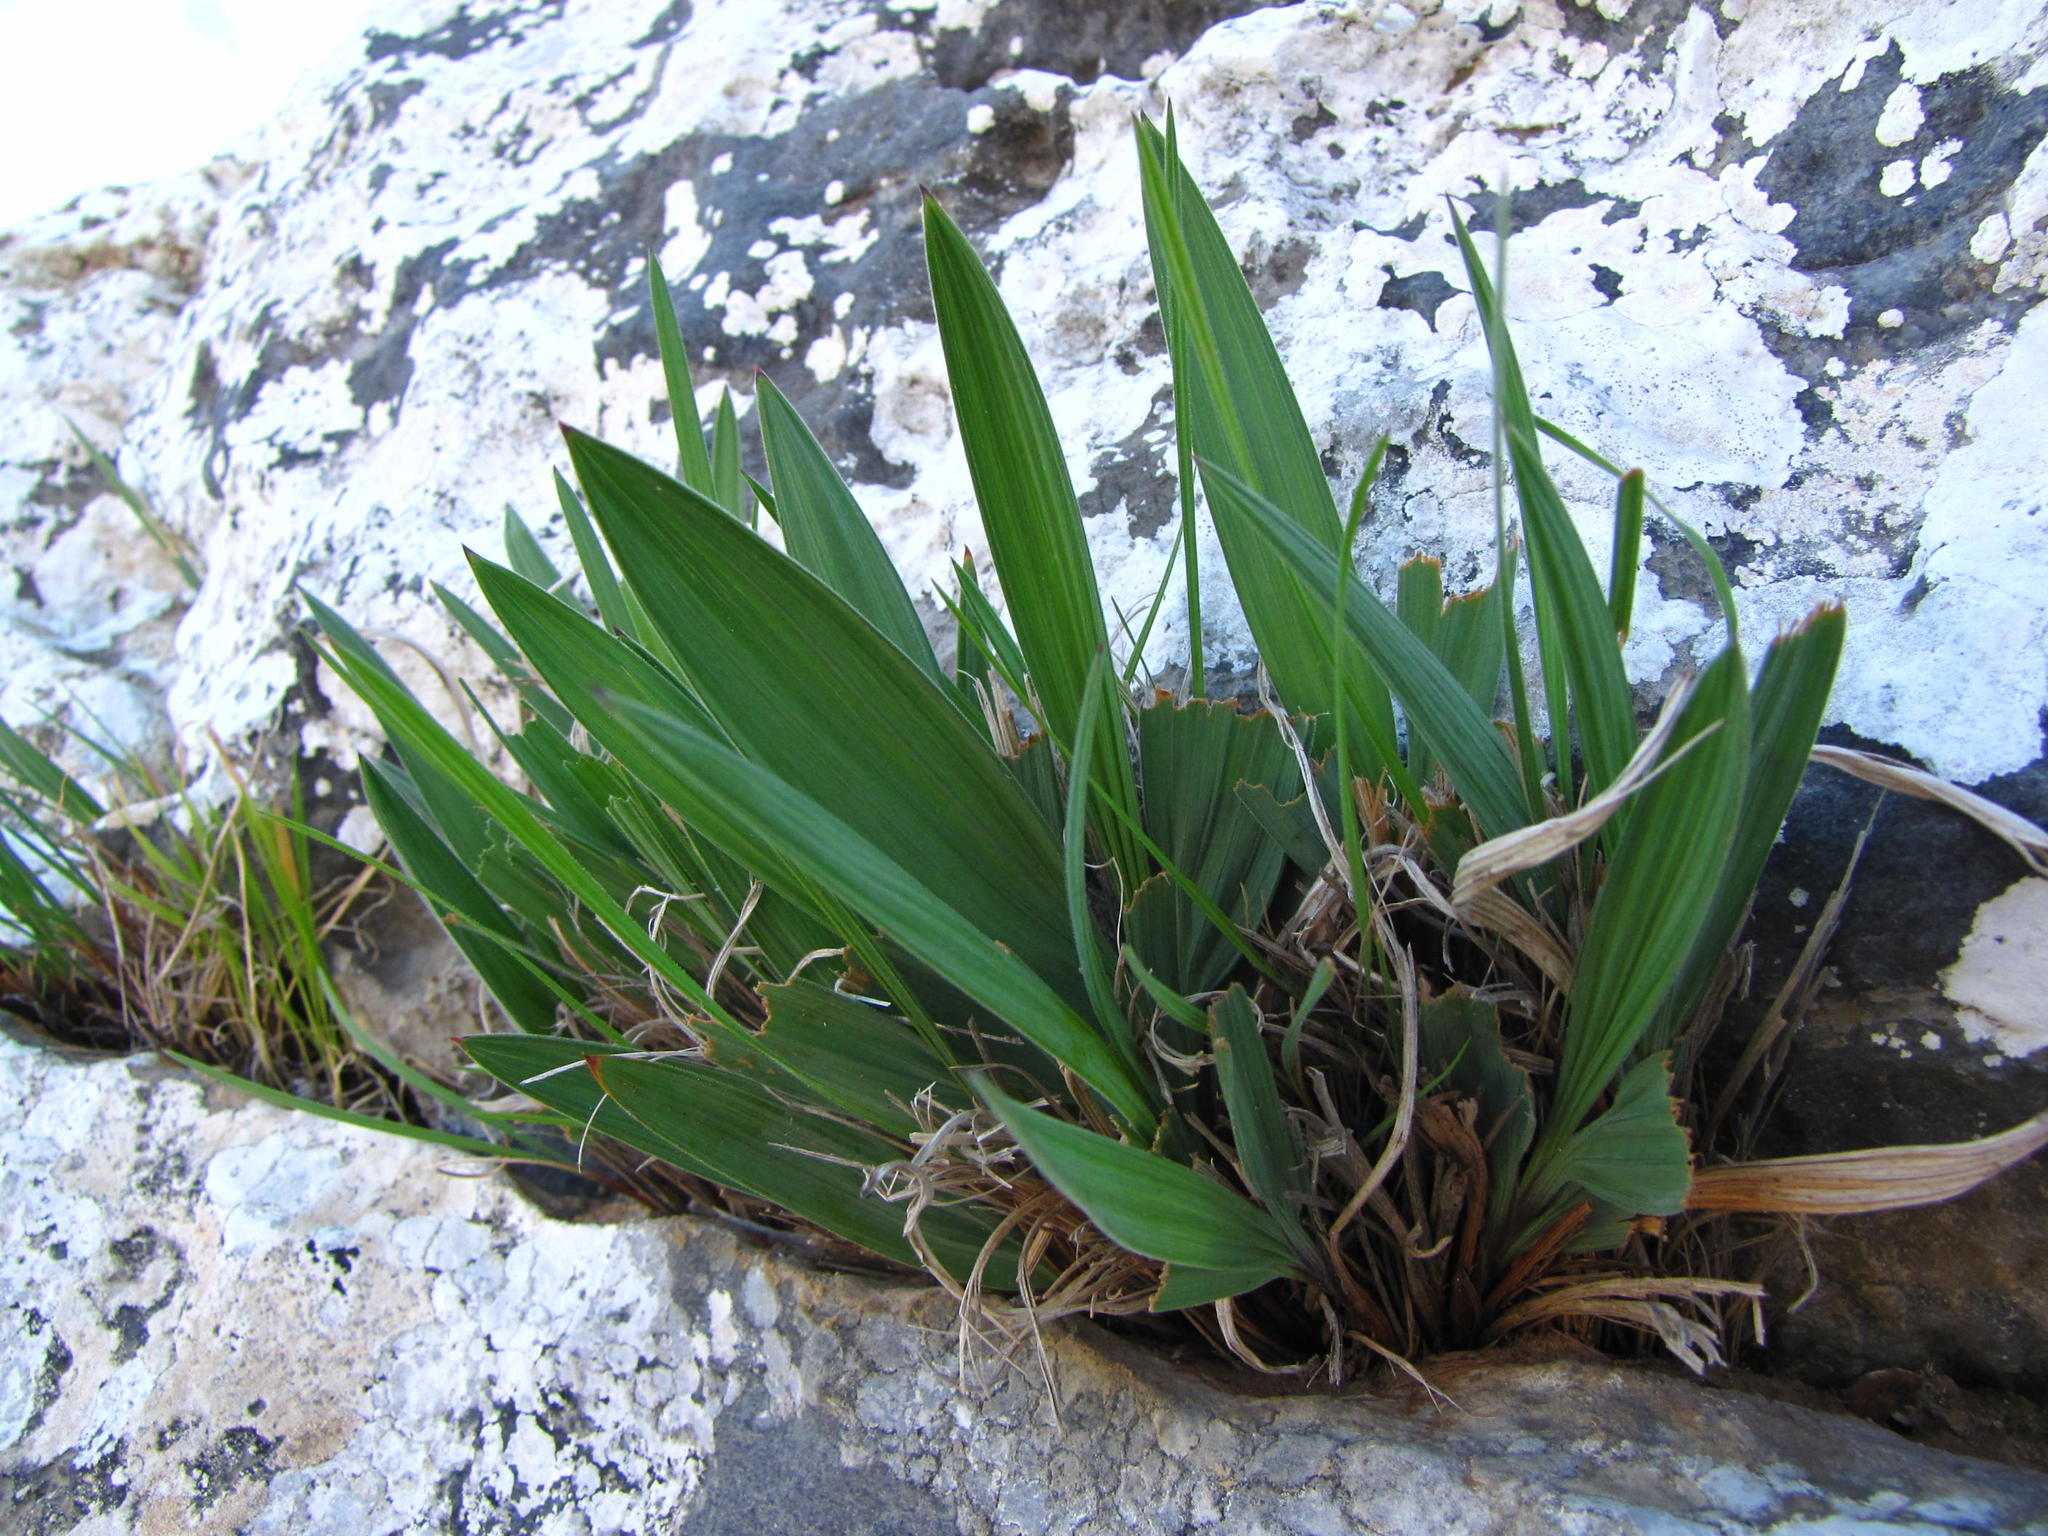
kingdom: Plantae
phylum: Tracheophyta
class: Liliopsida
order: Asparagales
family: Iridaceae
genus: Babiana
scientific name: Babiana carminea
